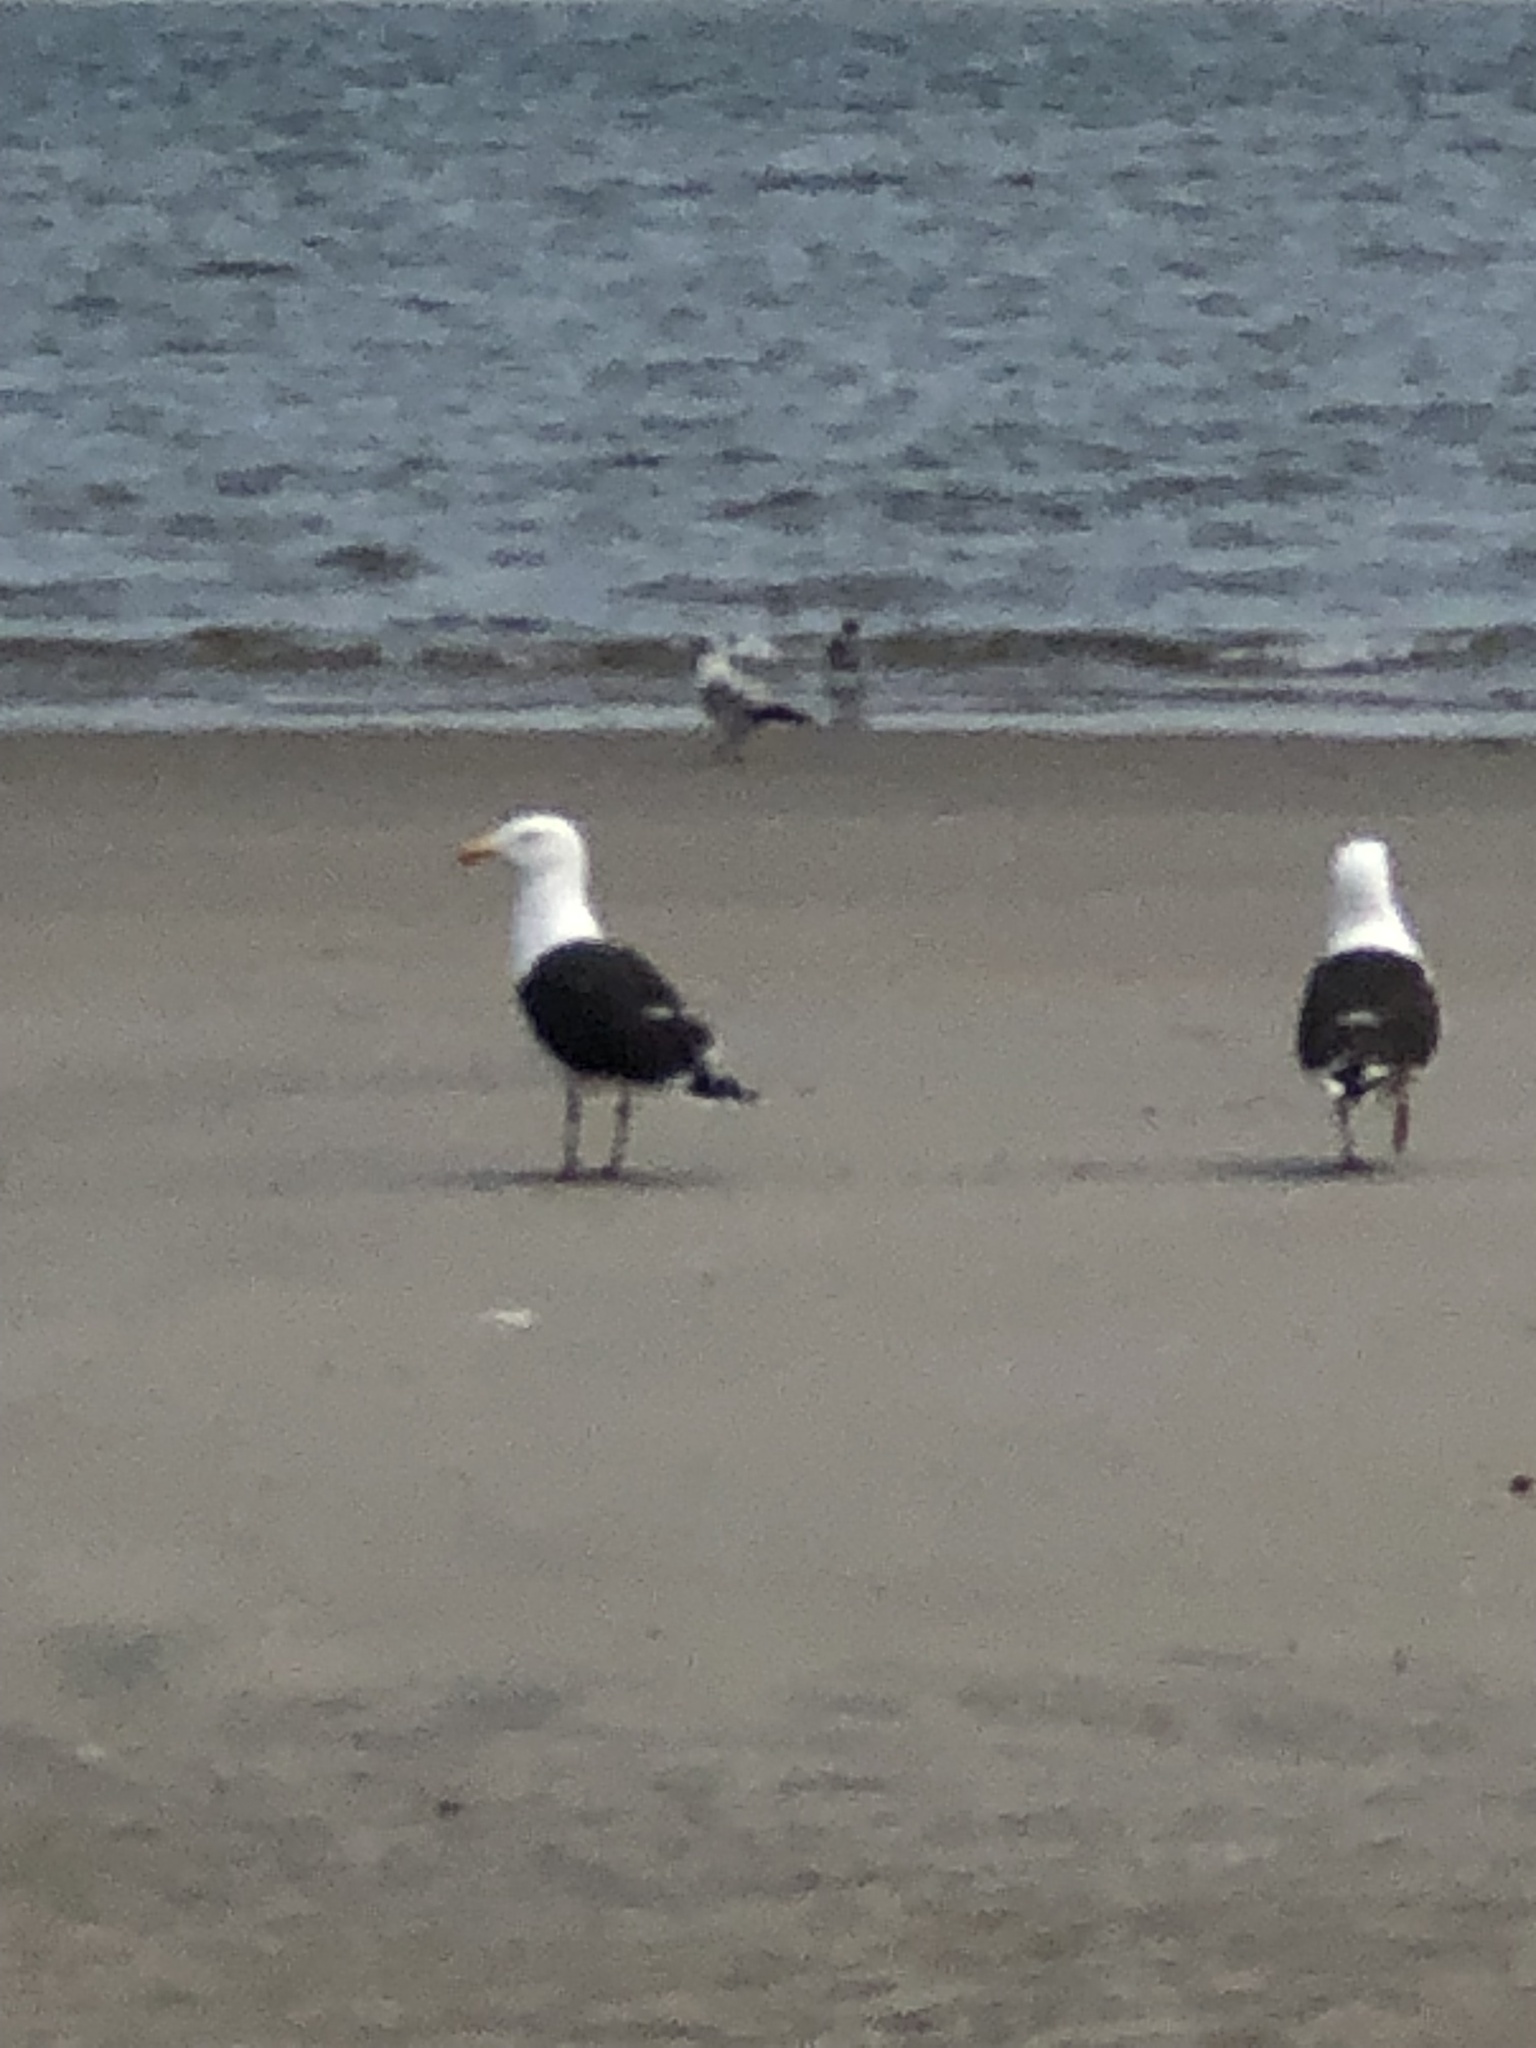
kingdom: Animalia
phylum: Chordata
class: Aves
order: Charadriiformes
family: Laridae
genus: Larus
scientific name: Larus marinus
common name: Great black-backed gull
